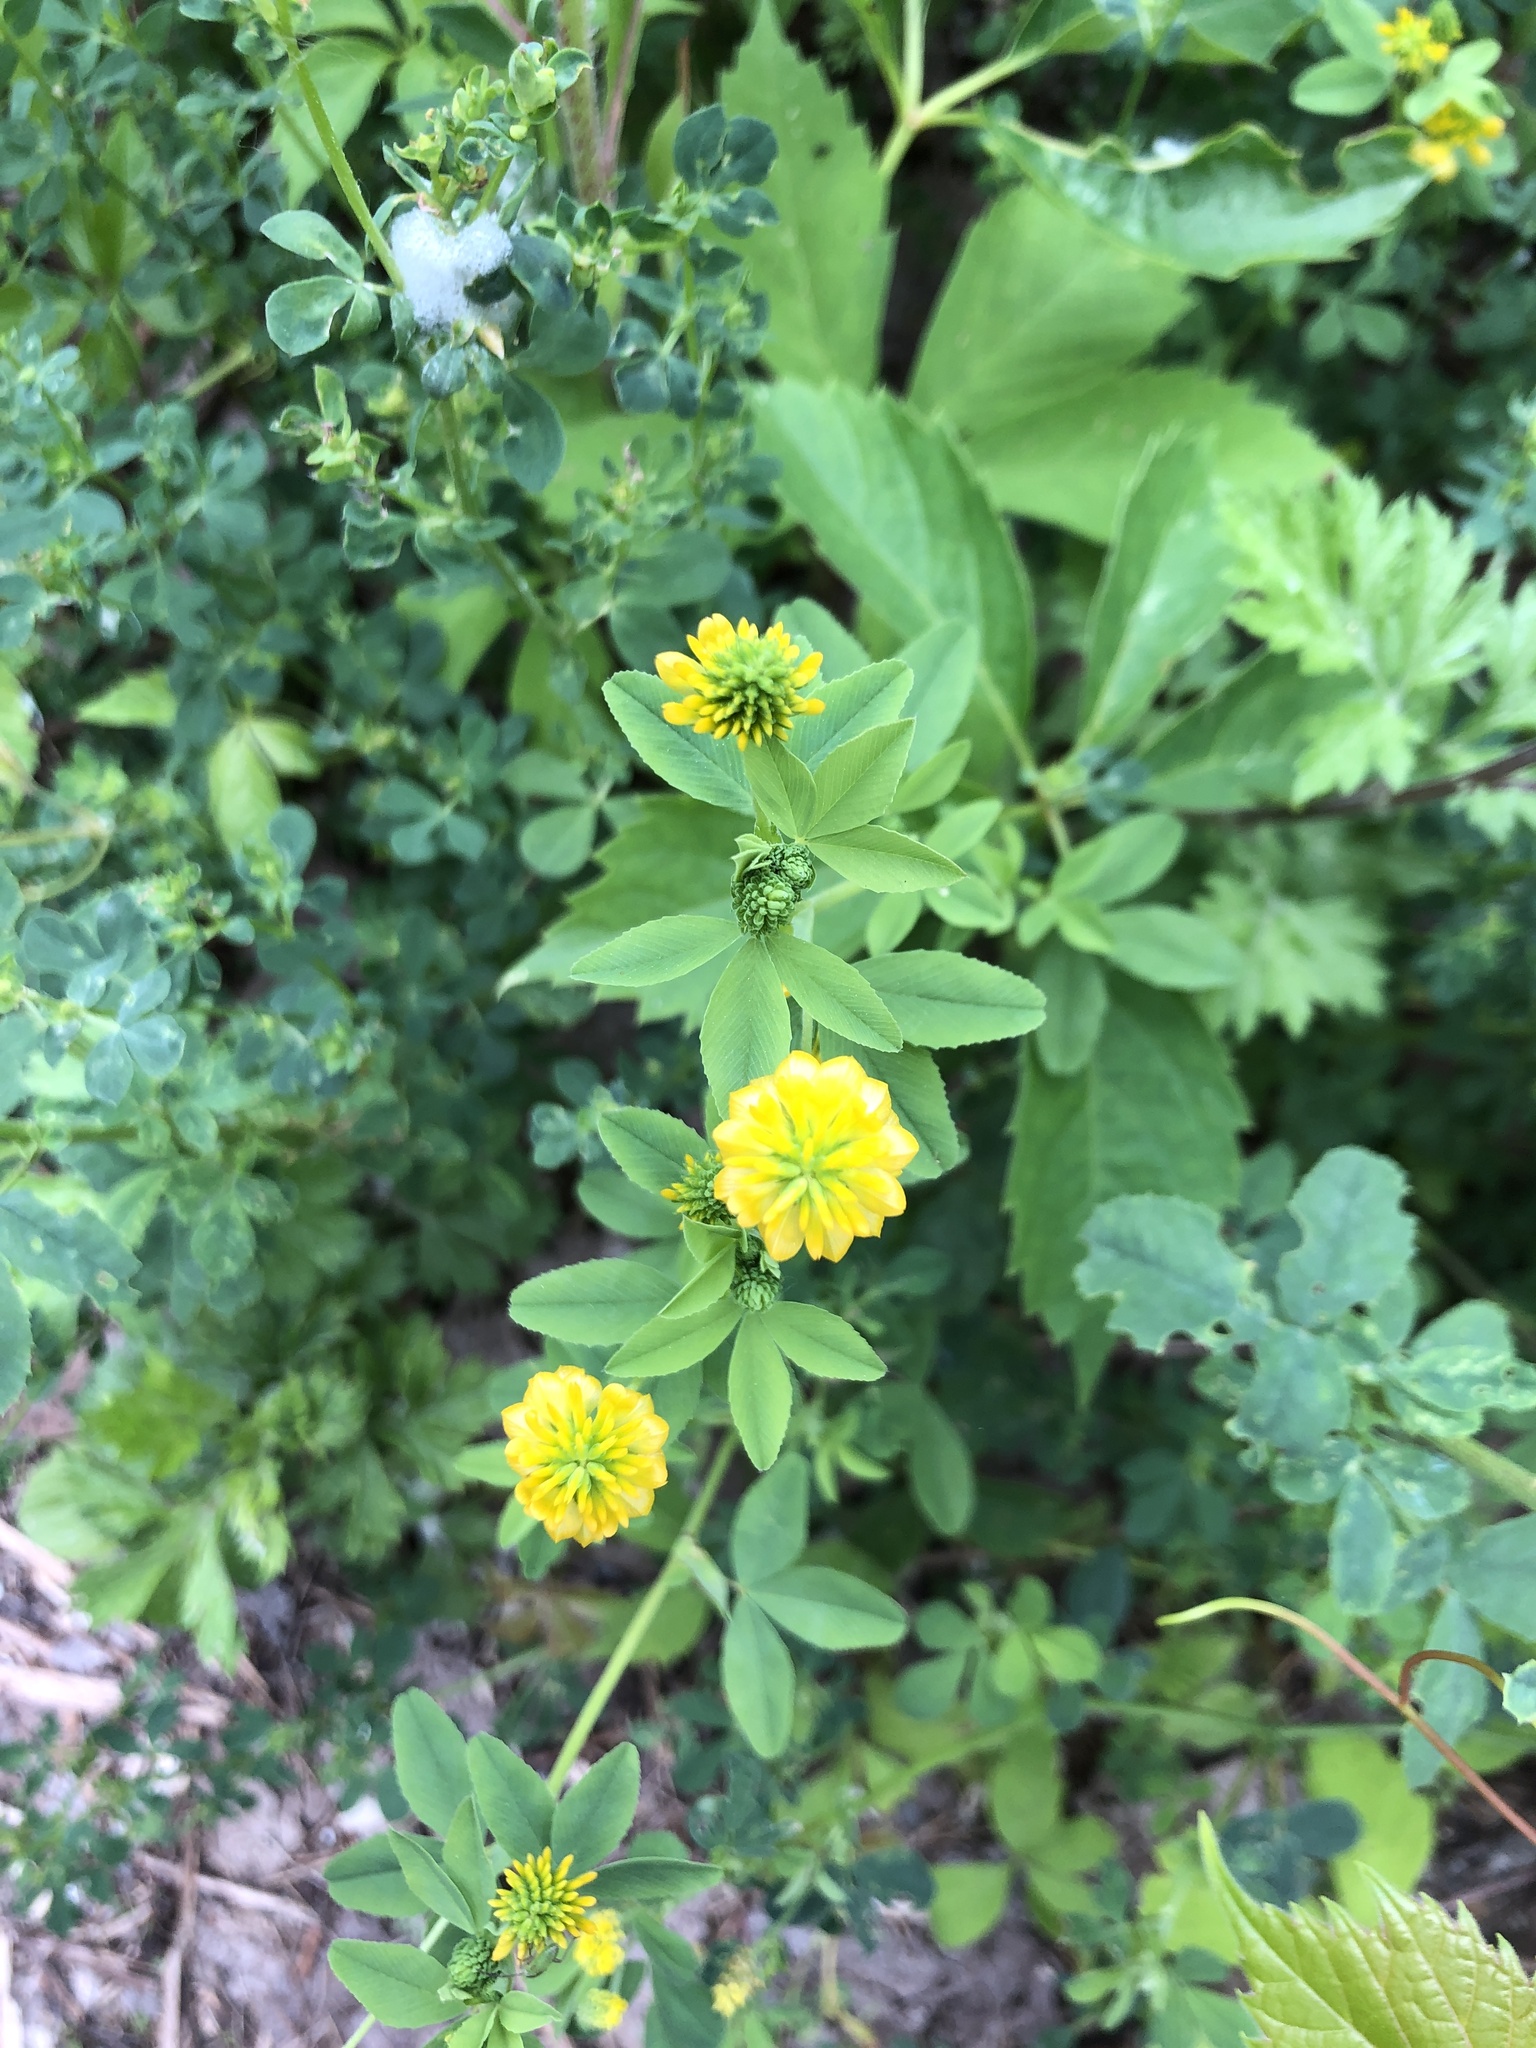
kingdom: Plantae
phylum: Tracheophyta
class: Magnoliopsida
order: Fabales
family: Fabaceae
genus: Trifolium
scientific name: Trifolium aureum
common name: Golden clover
